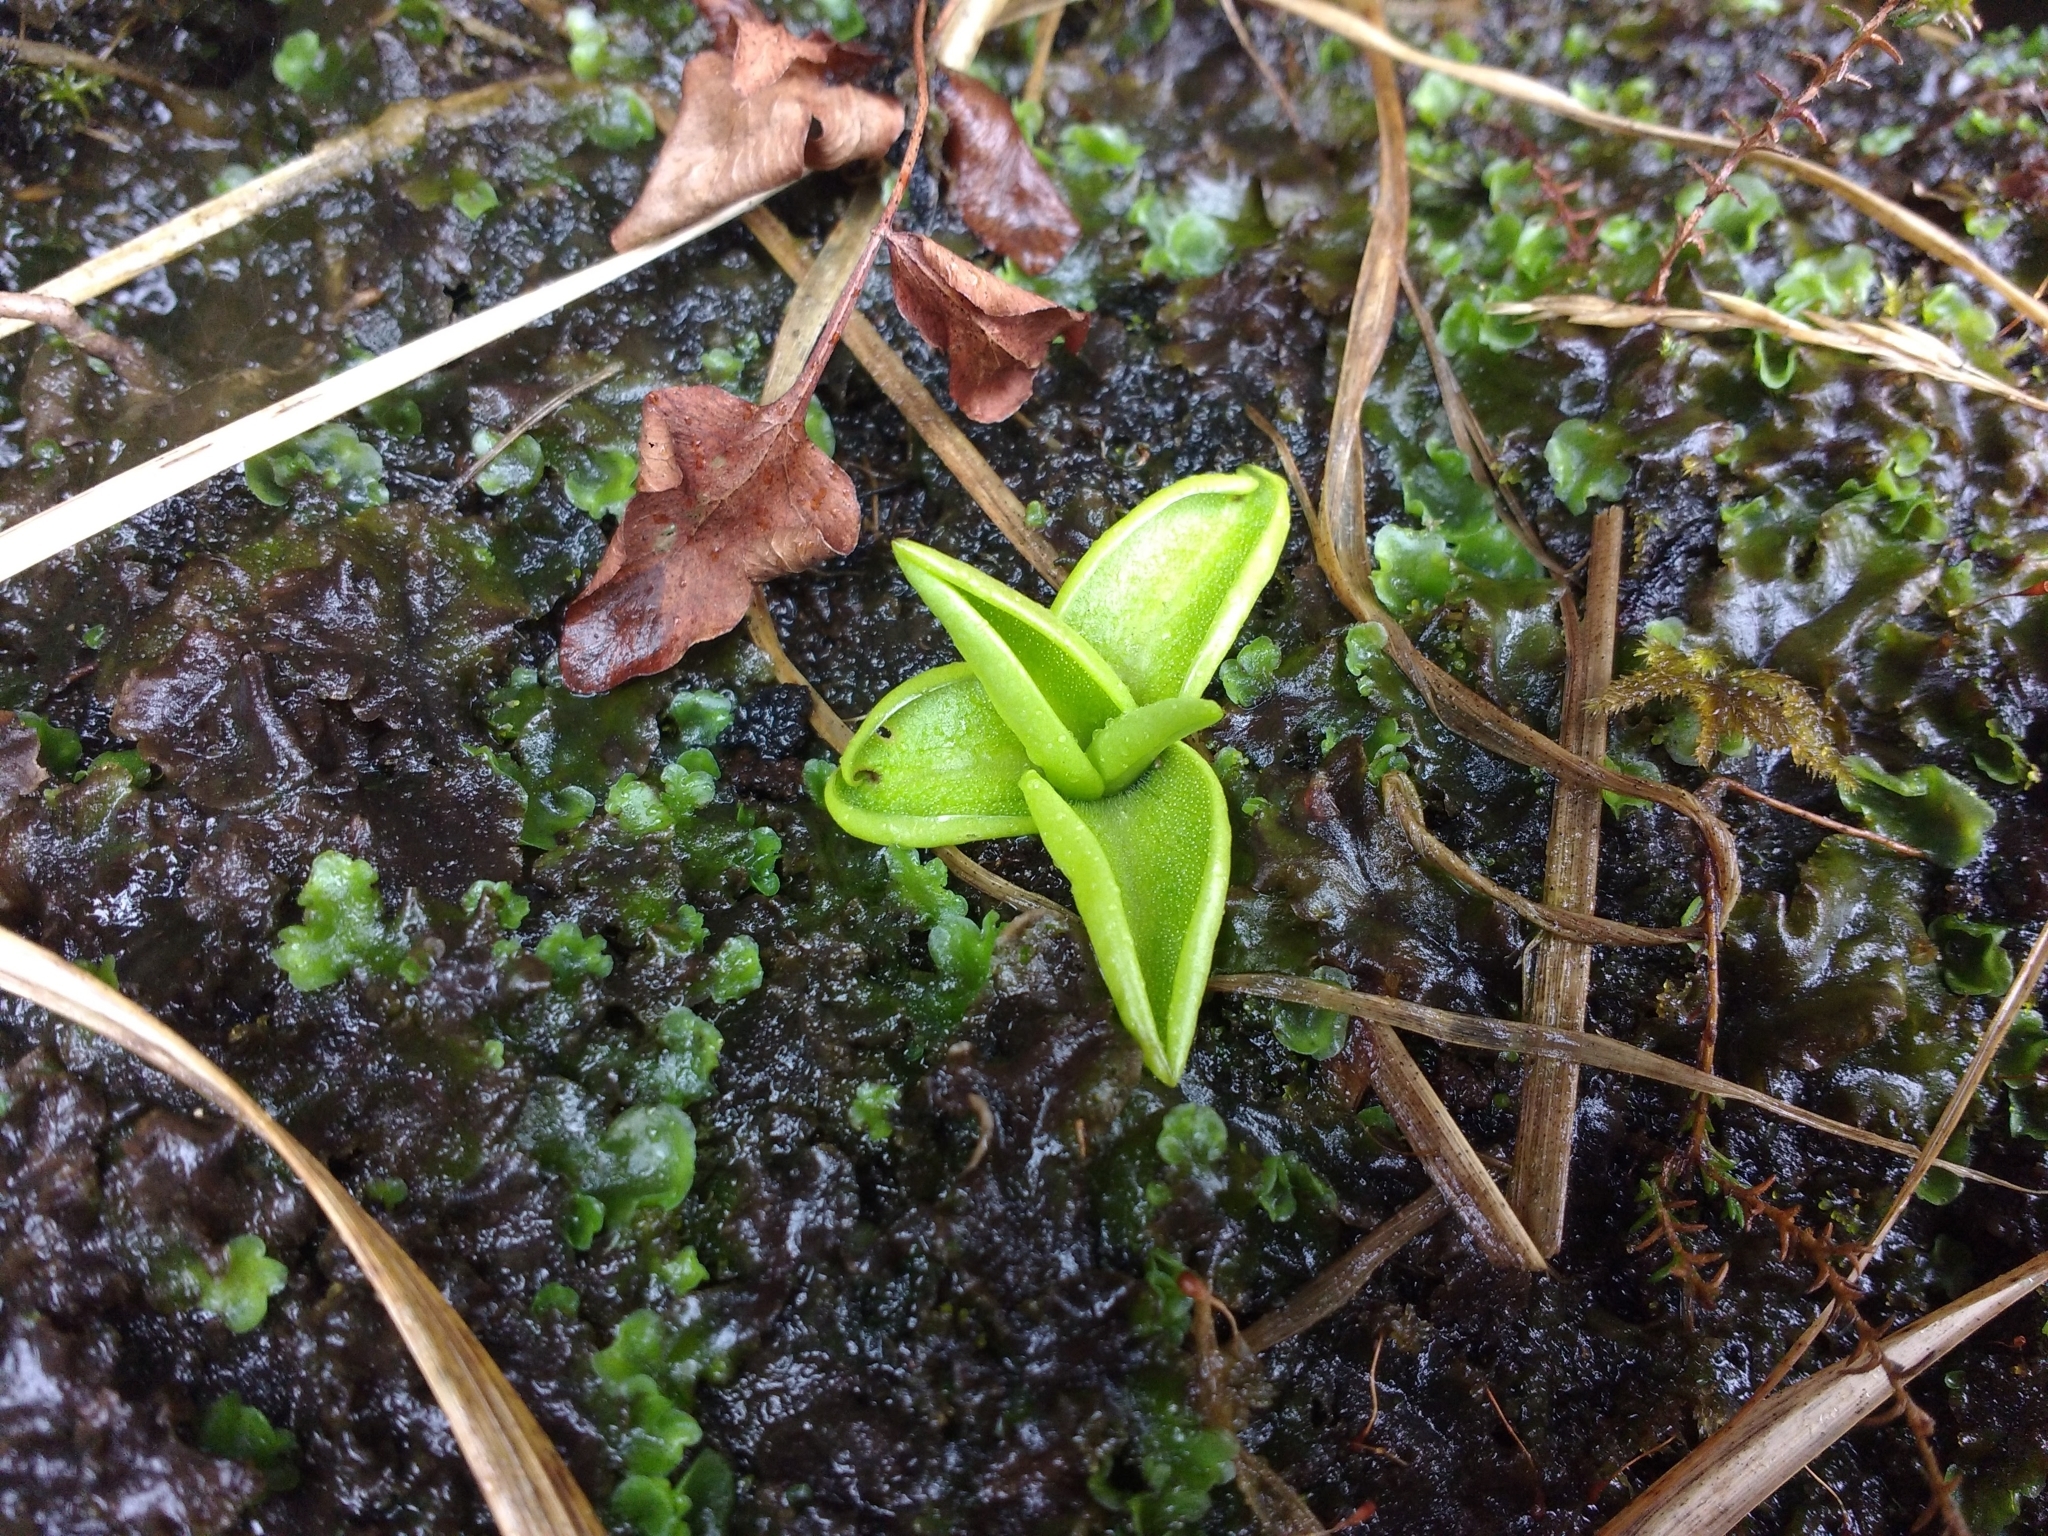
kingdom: Plantae
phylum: Tracheophyta
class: Magnoliopsida
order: Lamiales
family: Lentibulariaceae
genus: Pinguicula
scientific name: Pinguicula vulgaris
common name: Common butterwort
